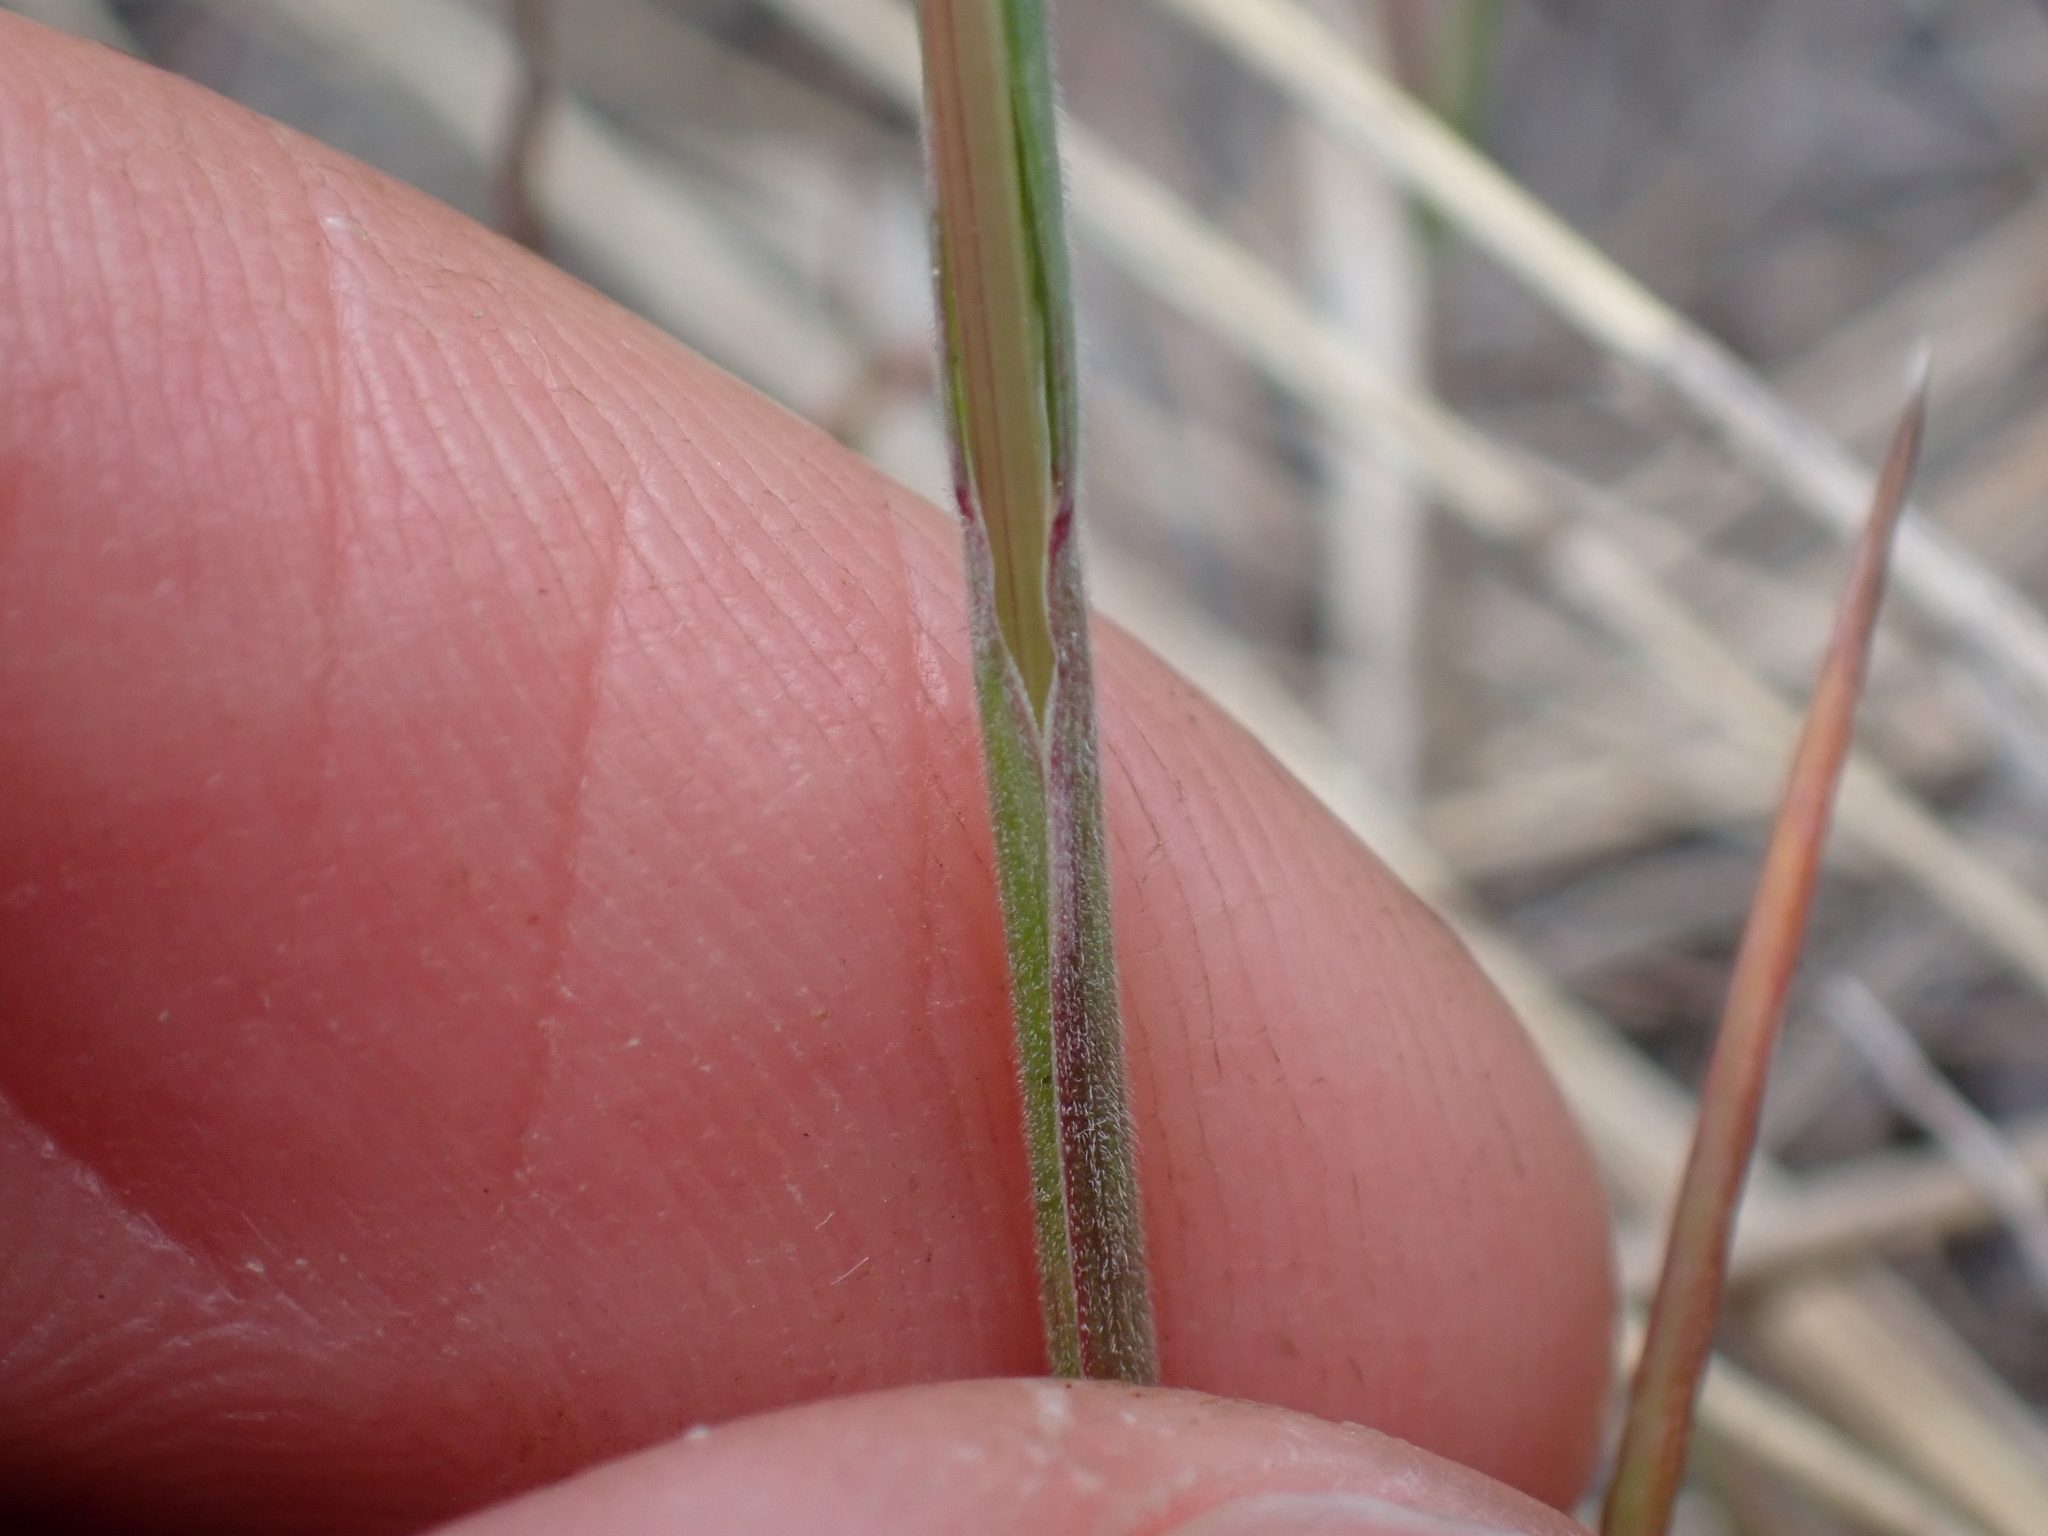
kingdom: Plantae
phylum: Tracheophyta
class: Liliopsida
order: Poales
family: Poaceae
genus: Poa
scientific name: Poa bulbosa
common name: Bulbous bluegrass
